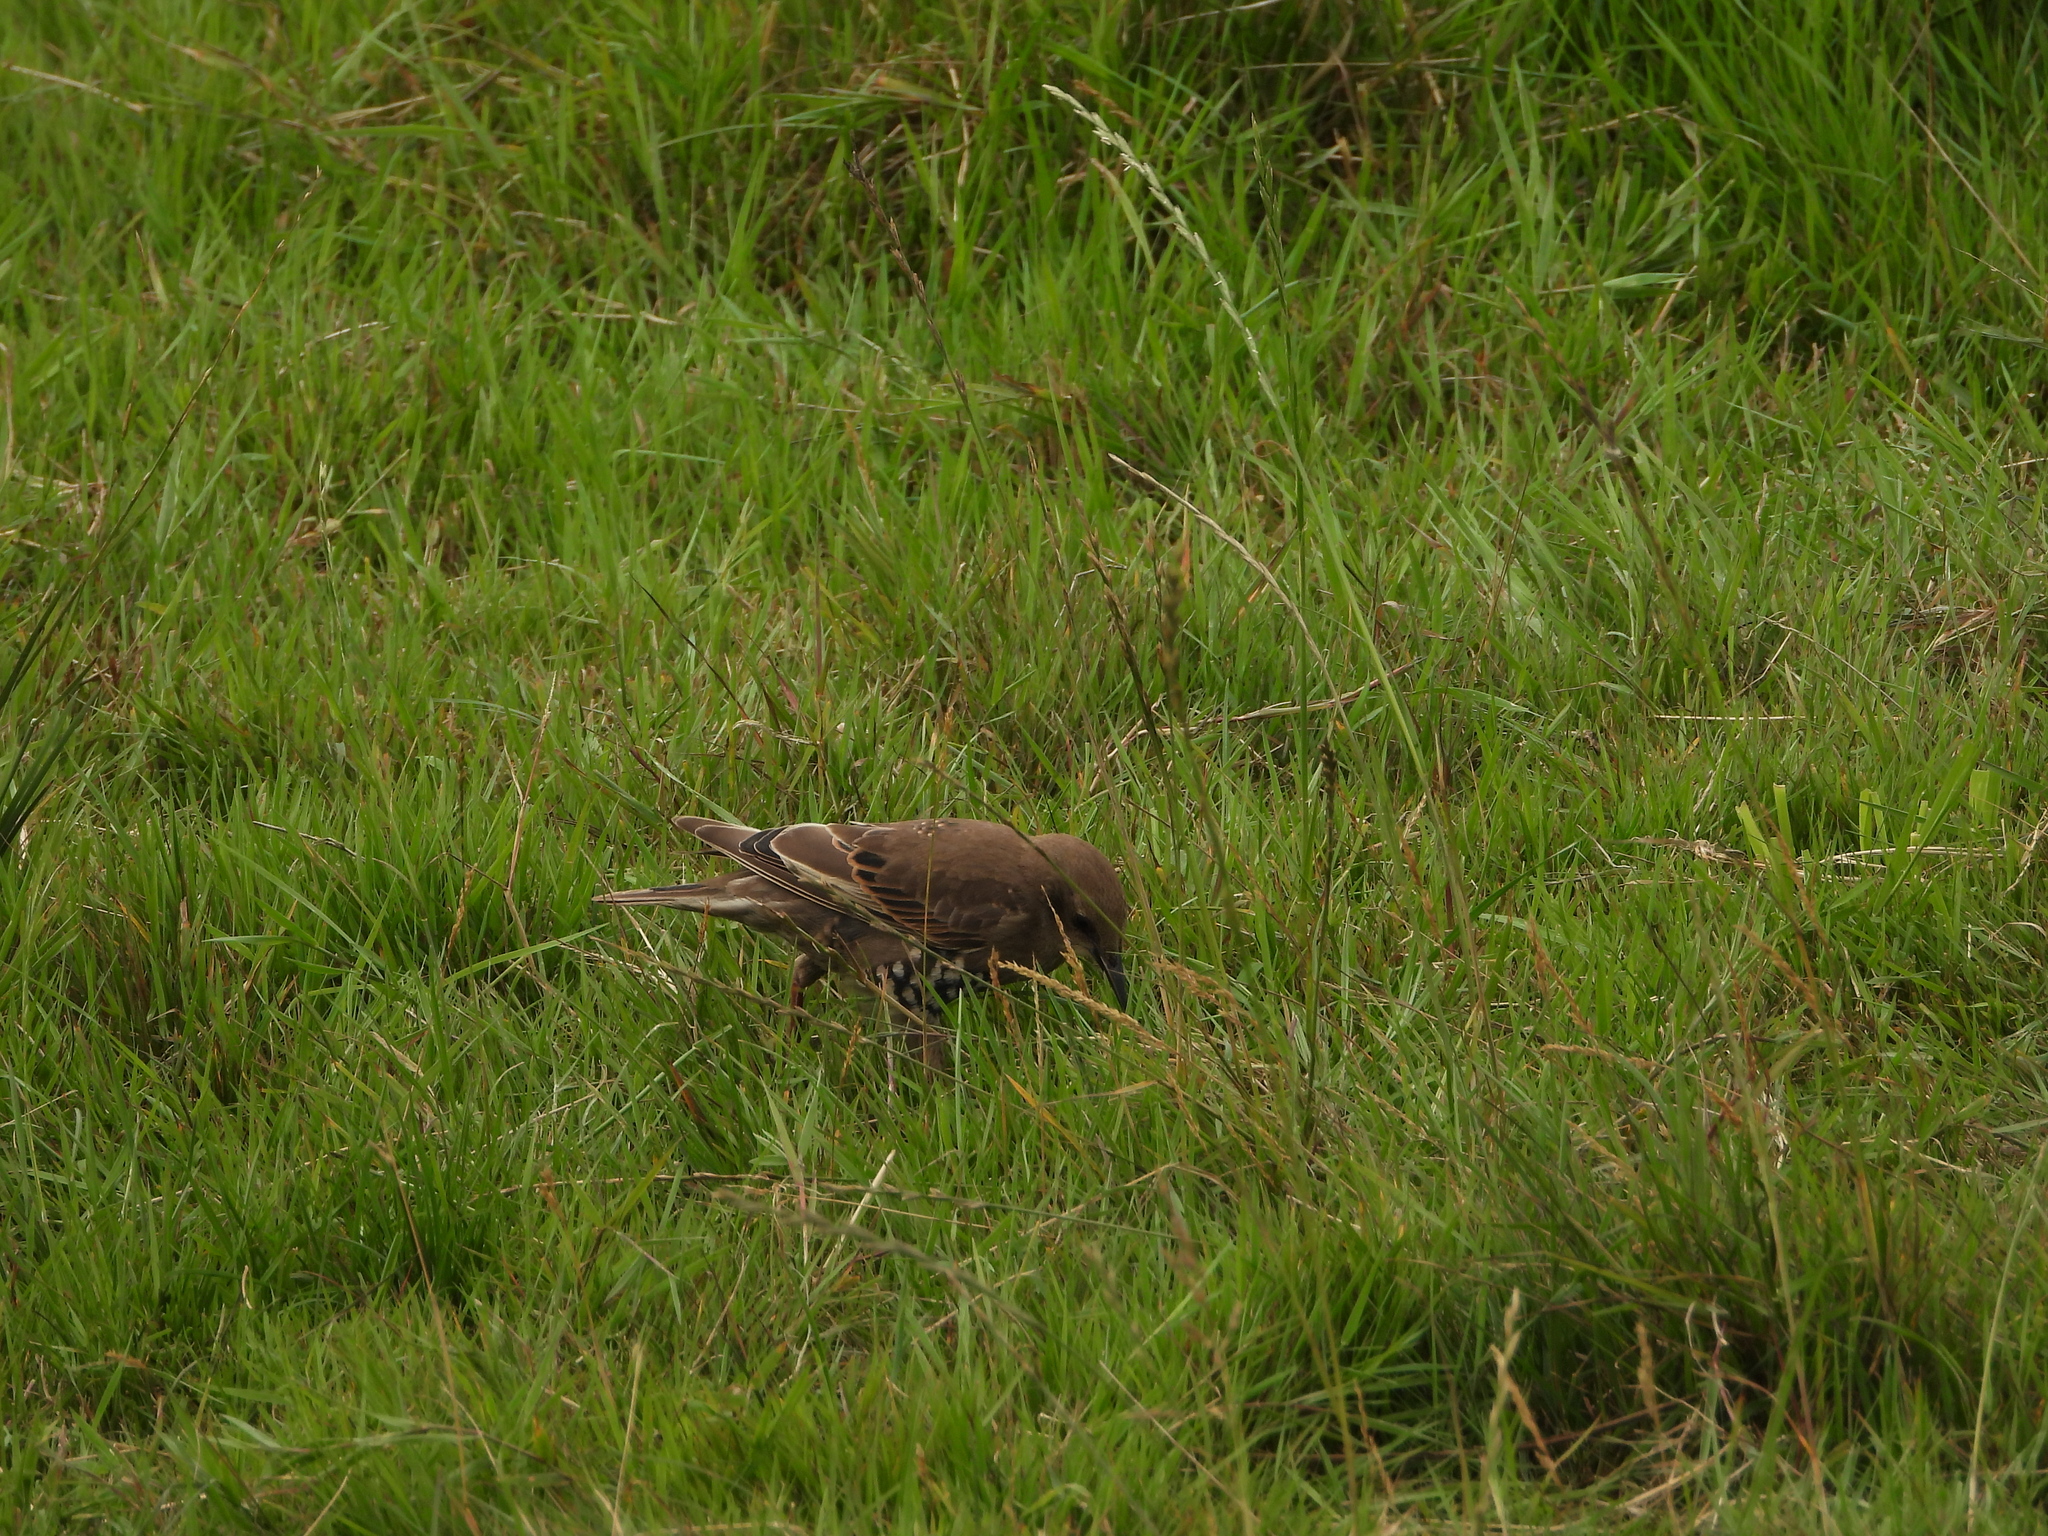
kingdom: Animalia
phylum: Chordata
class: Aves
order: Passeriformes
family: Sturnidae
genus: Sturnus
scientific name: Sturnus vulgaris
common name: Common starling
